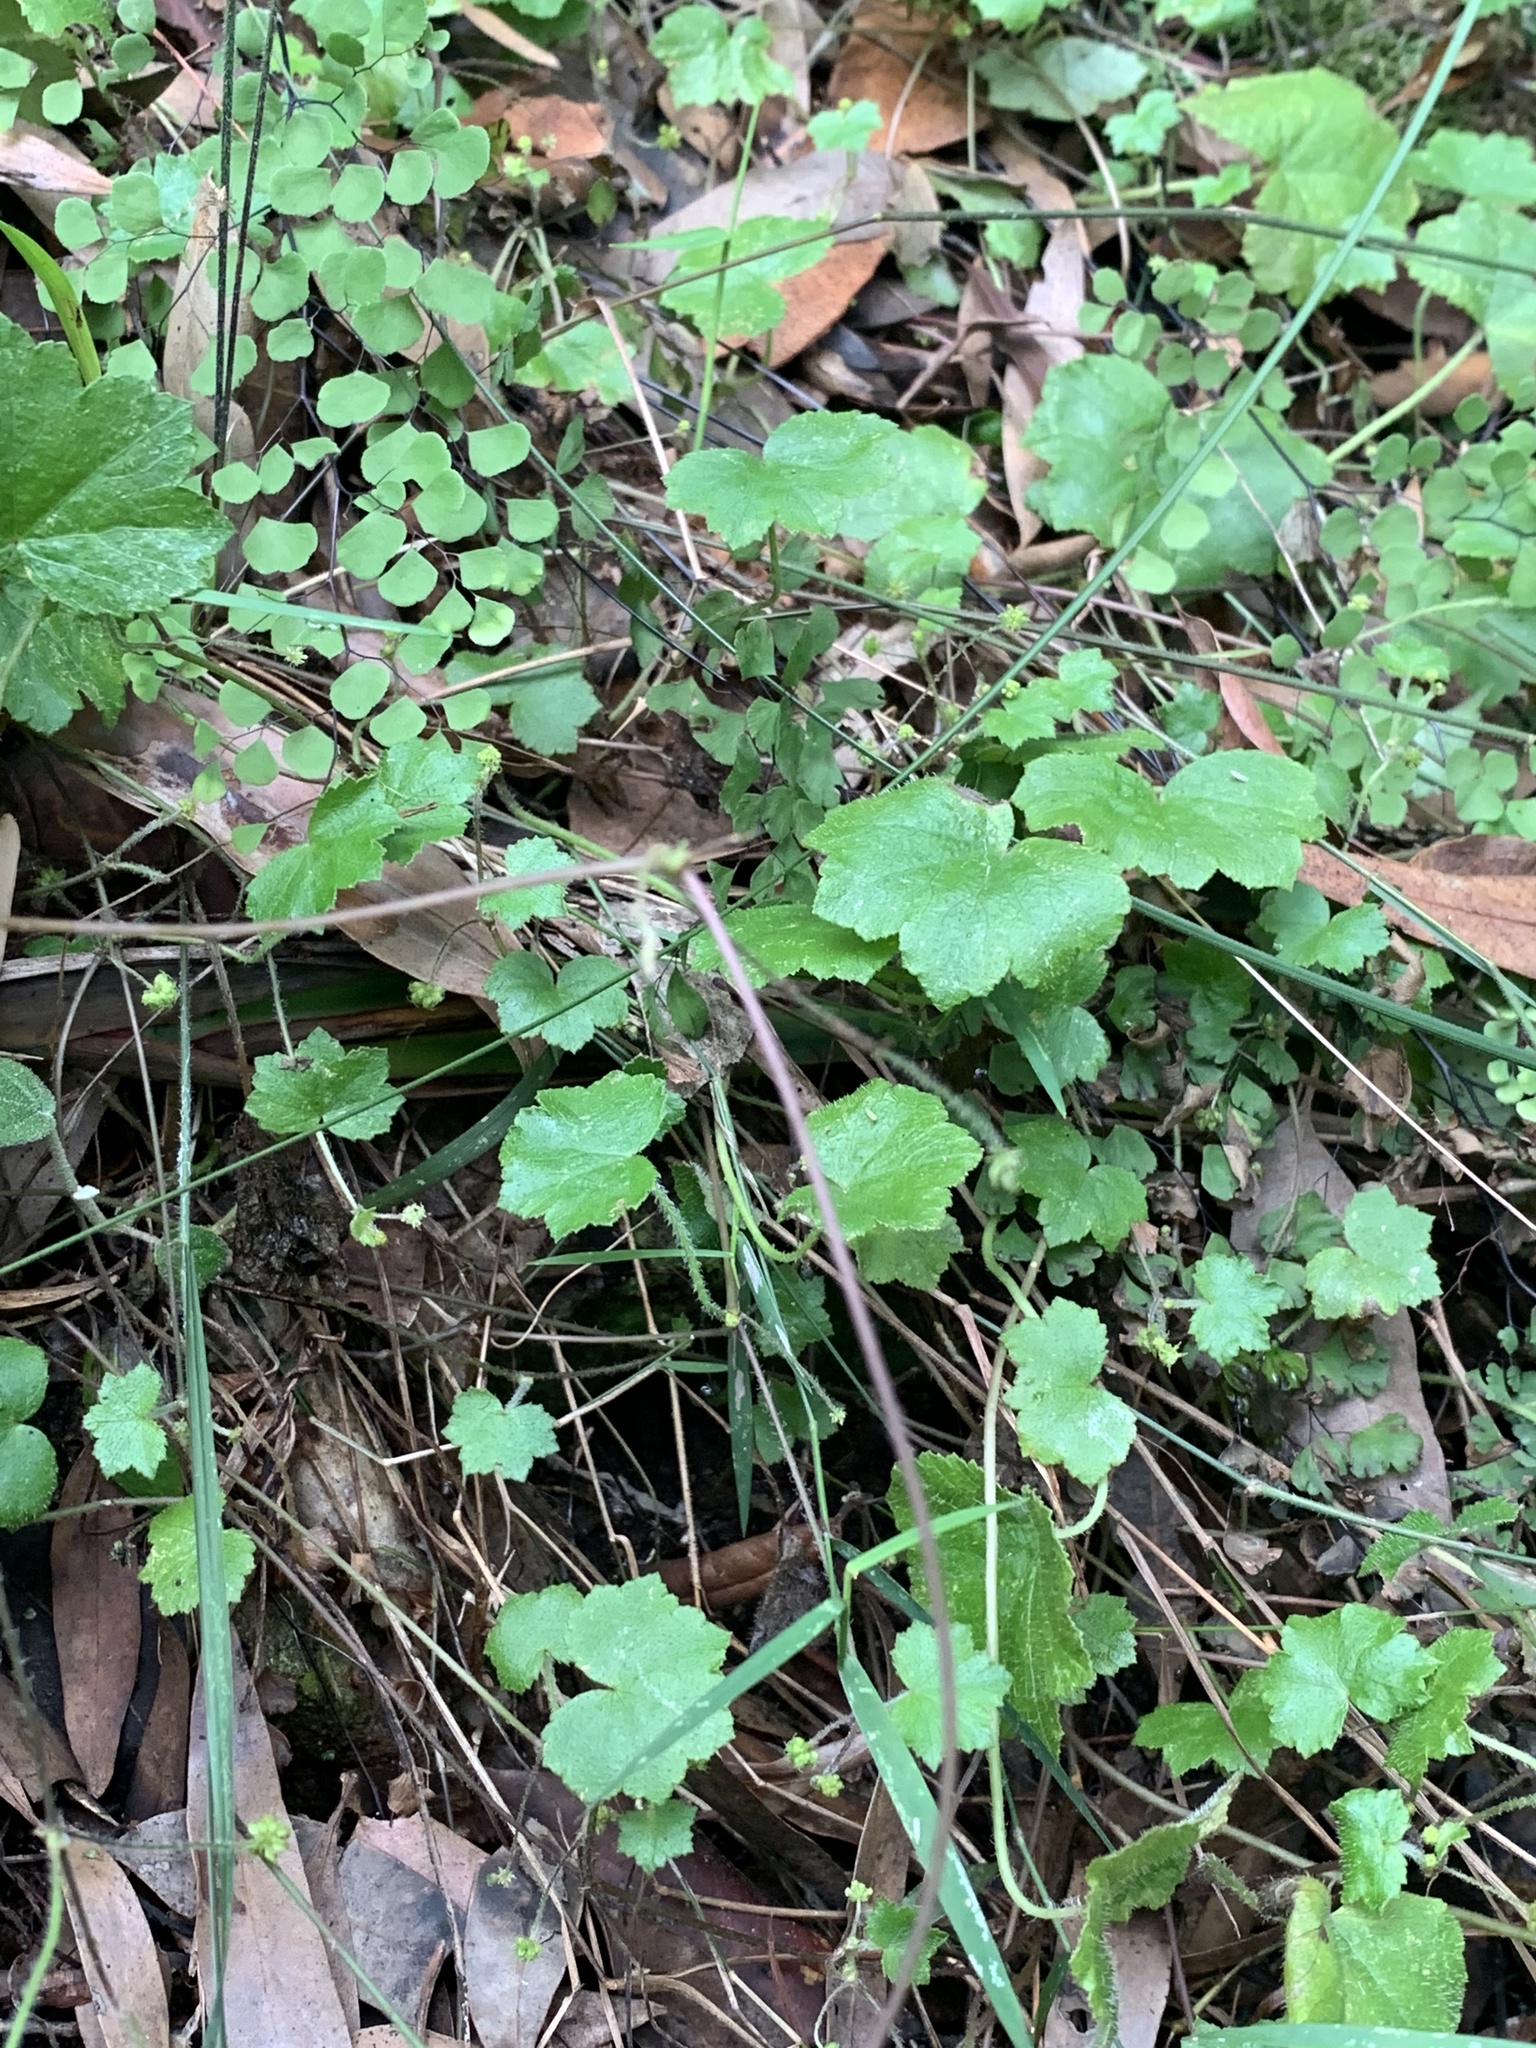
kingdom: Plantae
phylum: Tracheophyta
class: Magnoliopsida
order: Apiales
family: Araliaceae
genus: Hydrocotyle
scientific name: Hydrocotyle hirta
